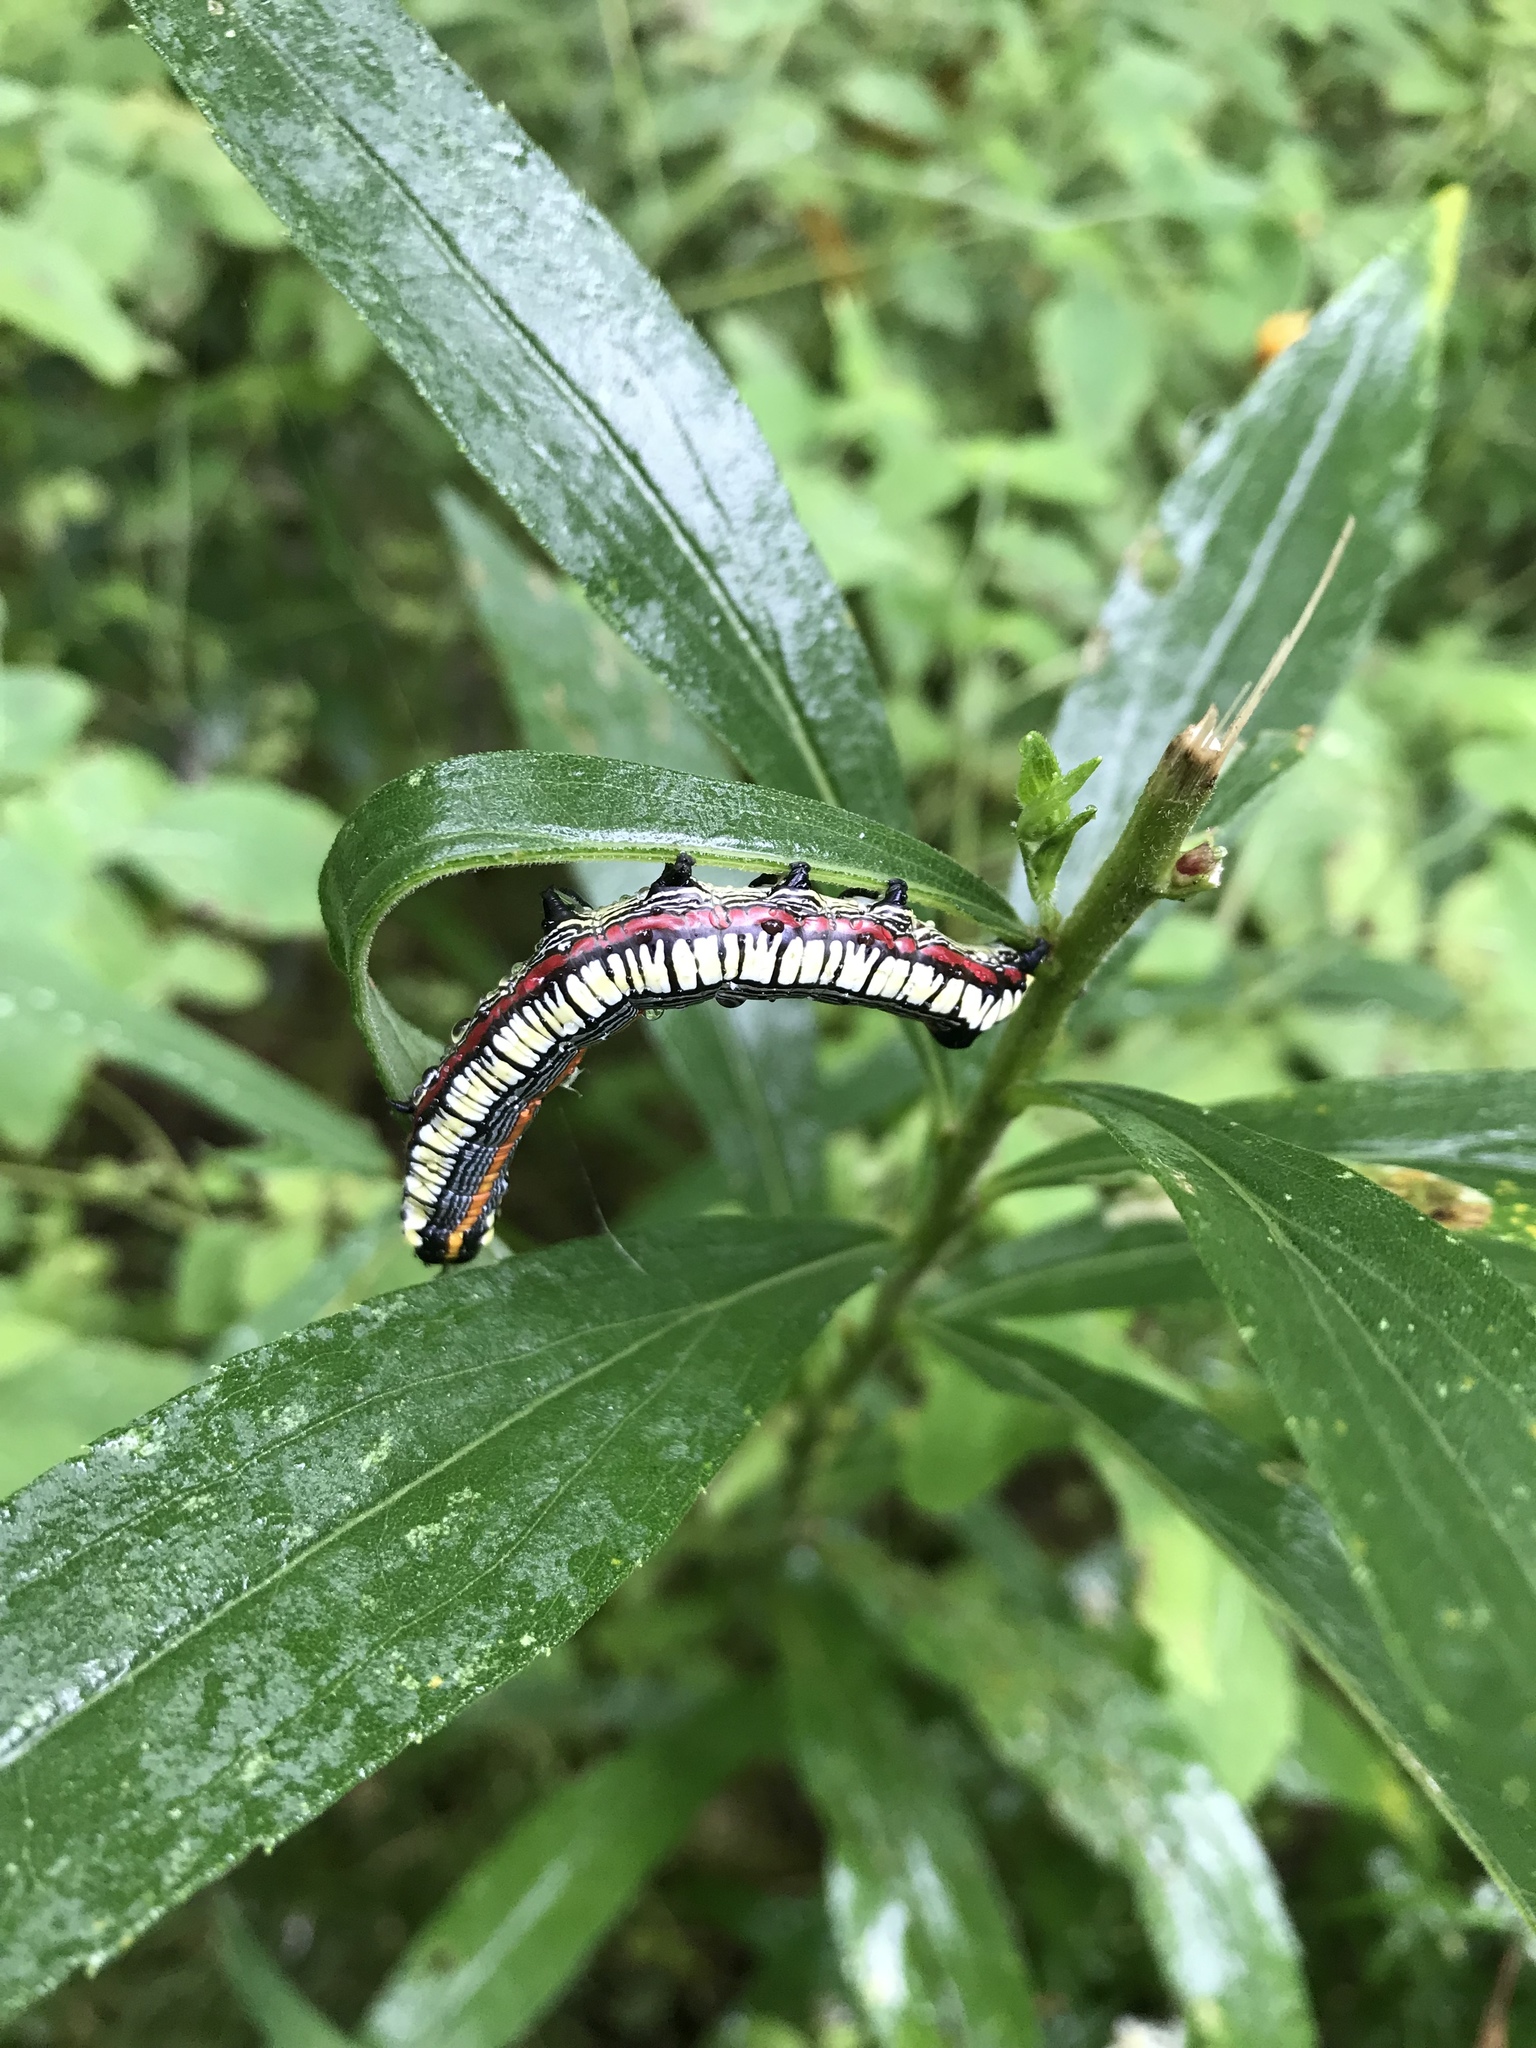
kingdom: Animalia
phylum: Arthropoda
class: Insecta
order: Lepidoptera
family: Noctuidae
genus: Cucullia
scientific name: Cucullia convexipennis
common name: Brown-hooded owlet
